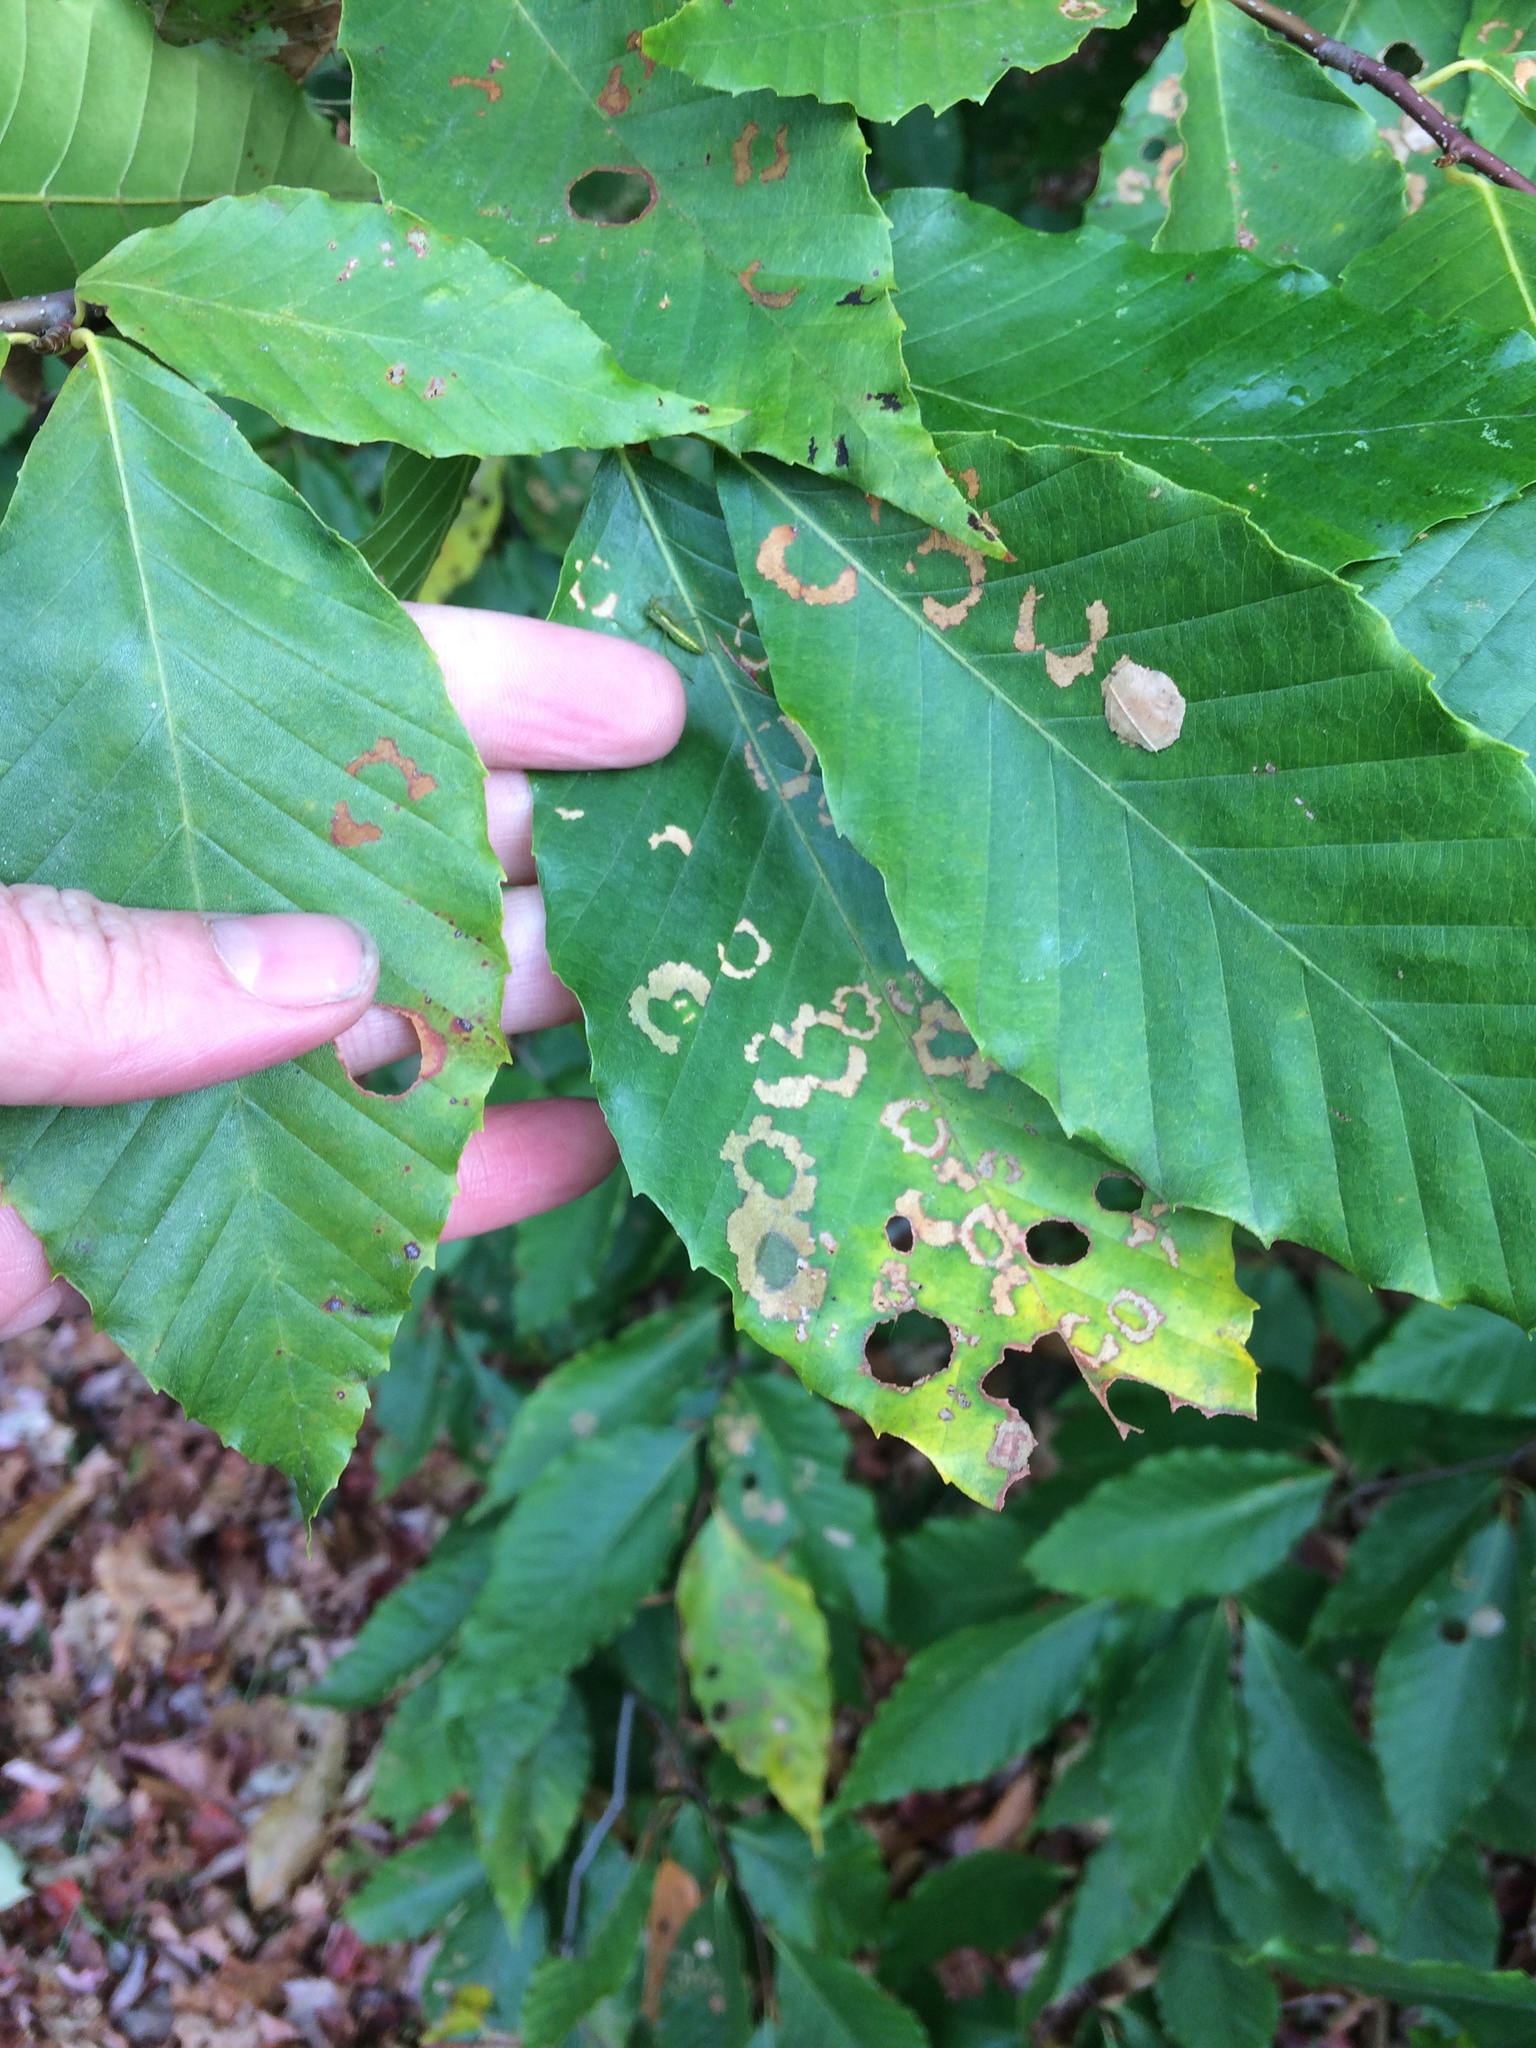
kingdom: Animalia
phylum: Arthropoda
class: Insecta
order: Lepidoptera
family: Incurvariidae
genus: Paraclemensia
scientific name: Paraclemensia acerifoliella
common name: Maple leafcutter
